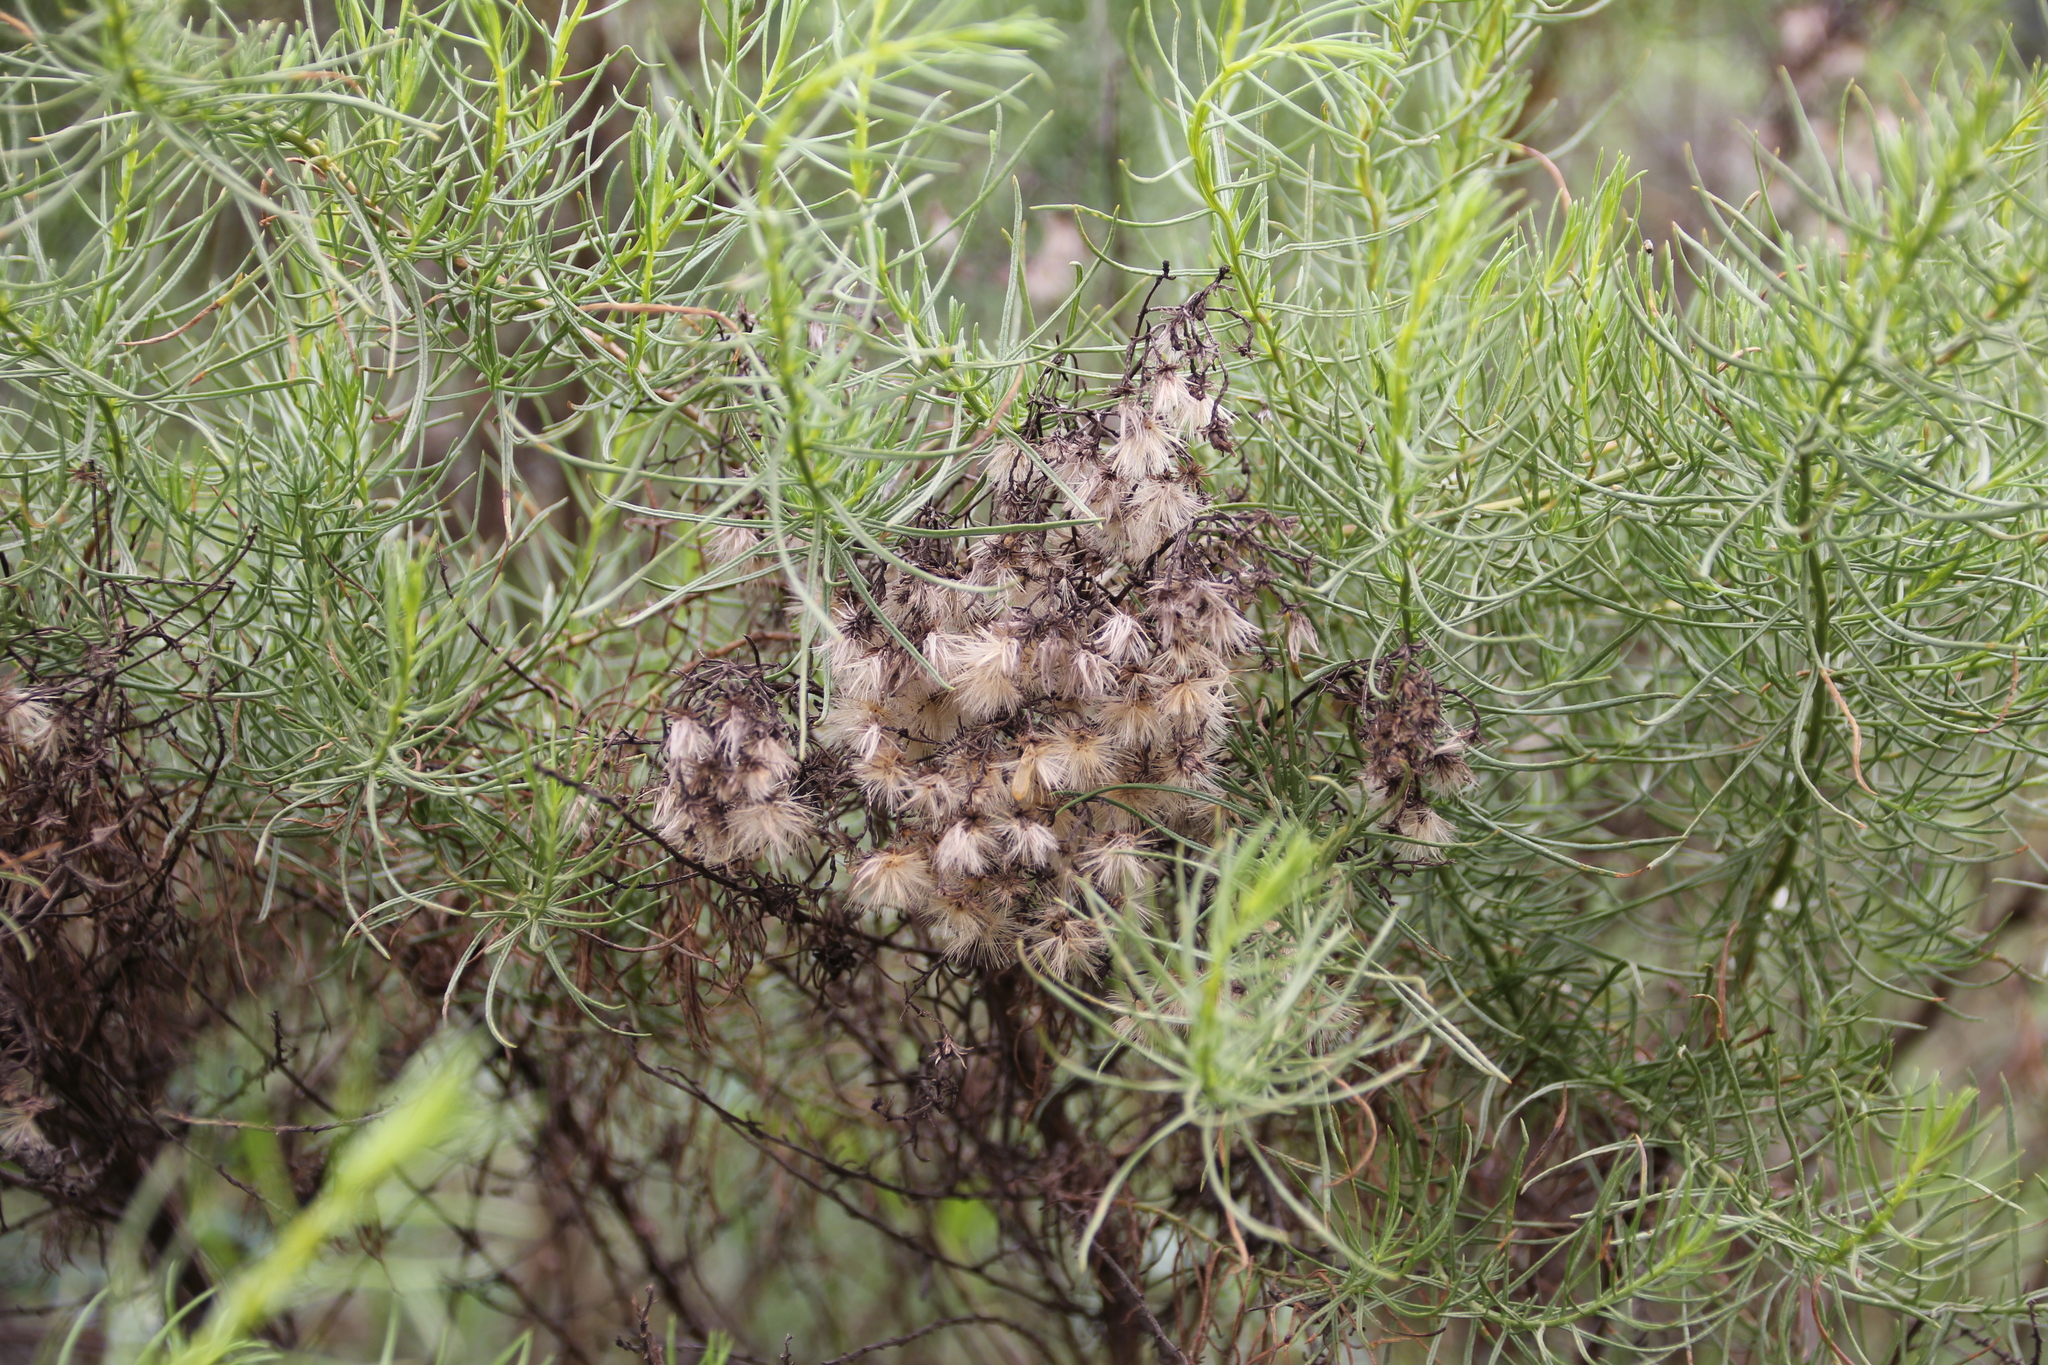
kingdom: Plantae
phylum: Tracheophyta
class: Magnoliopsida
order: Asterales
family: Asteraceae
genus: Ericameria
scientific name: Ericameria palmeri
